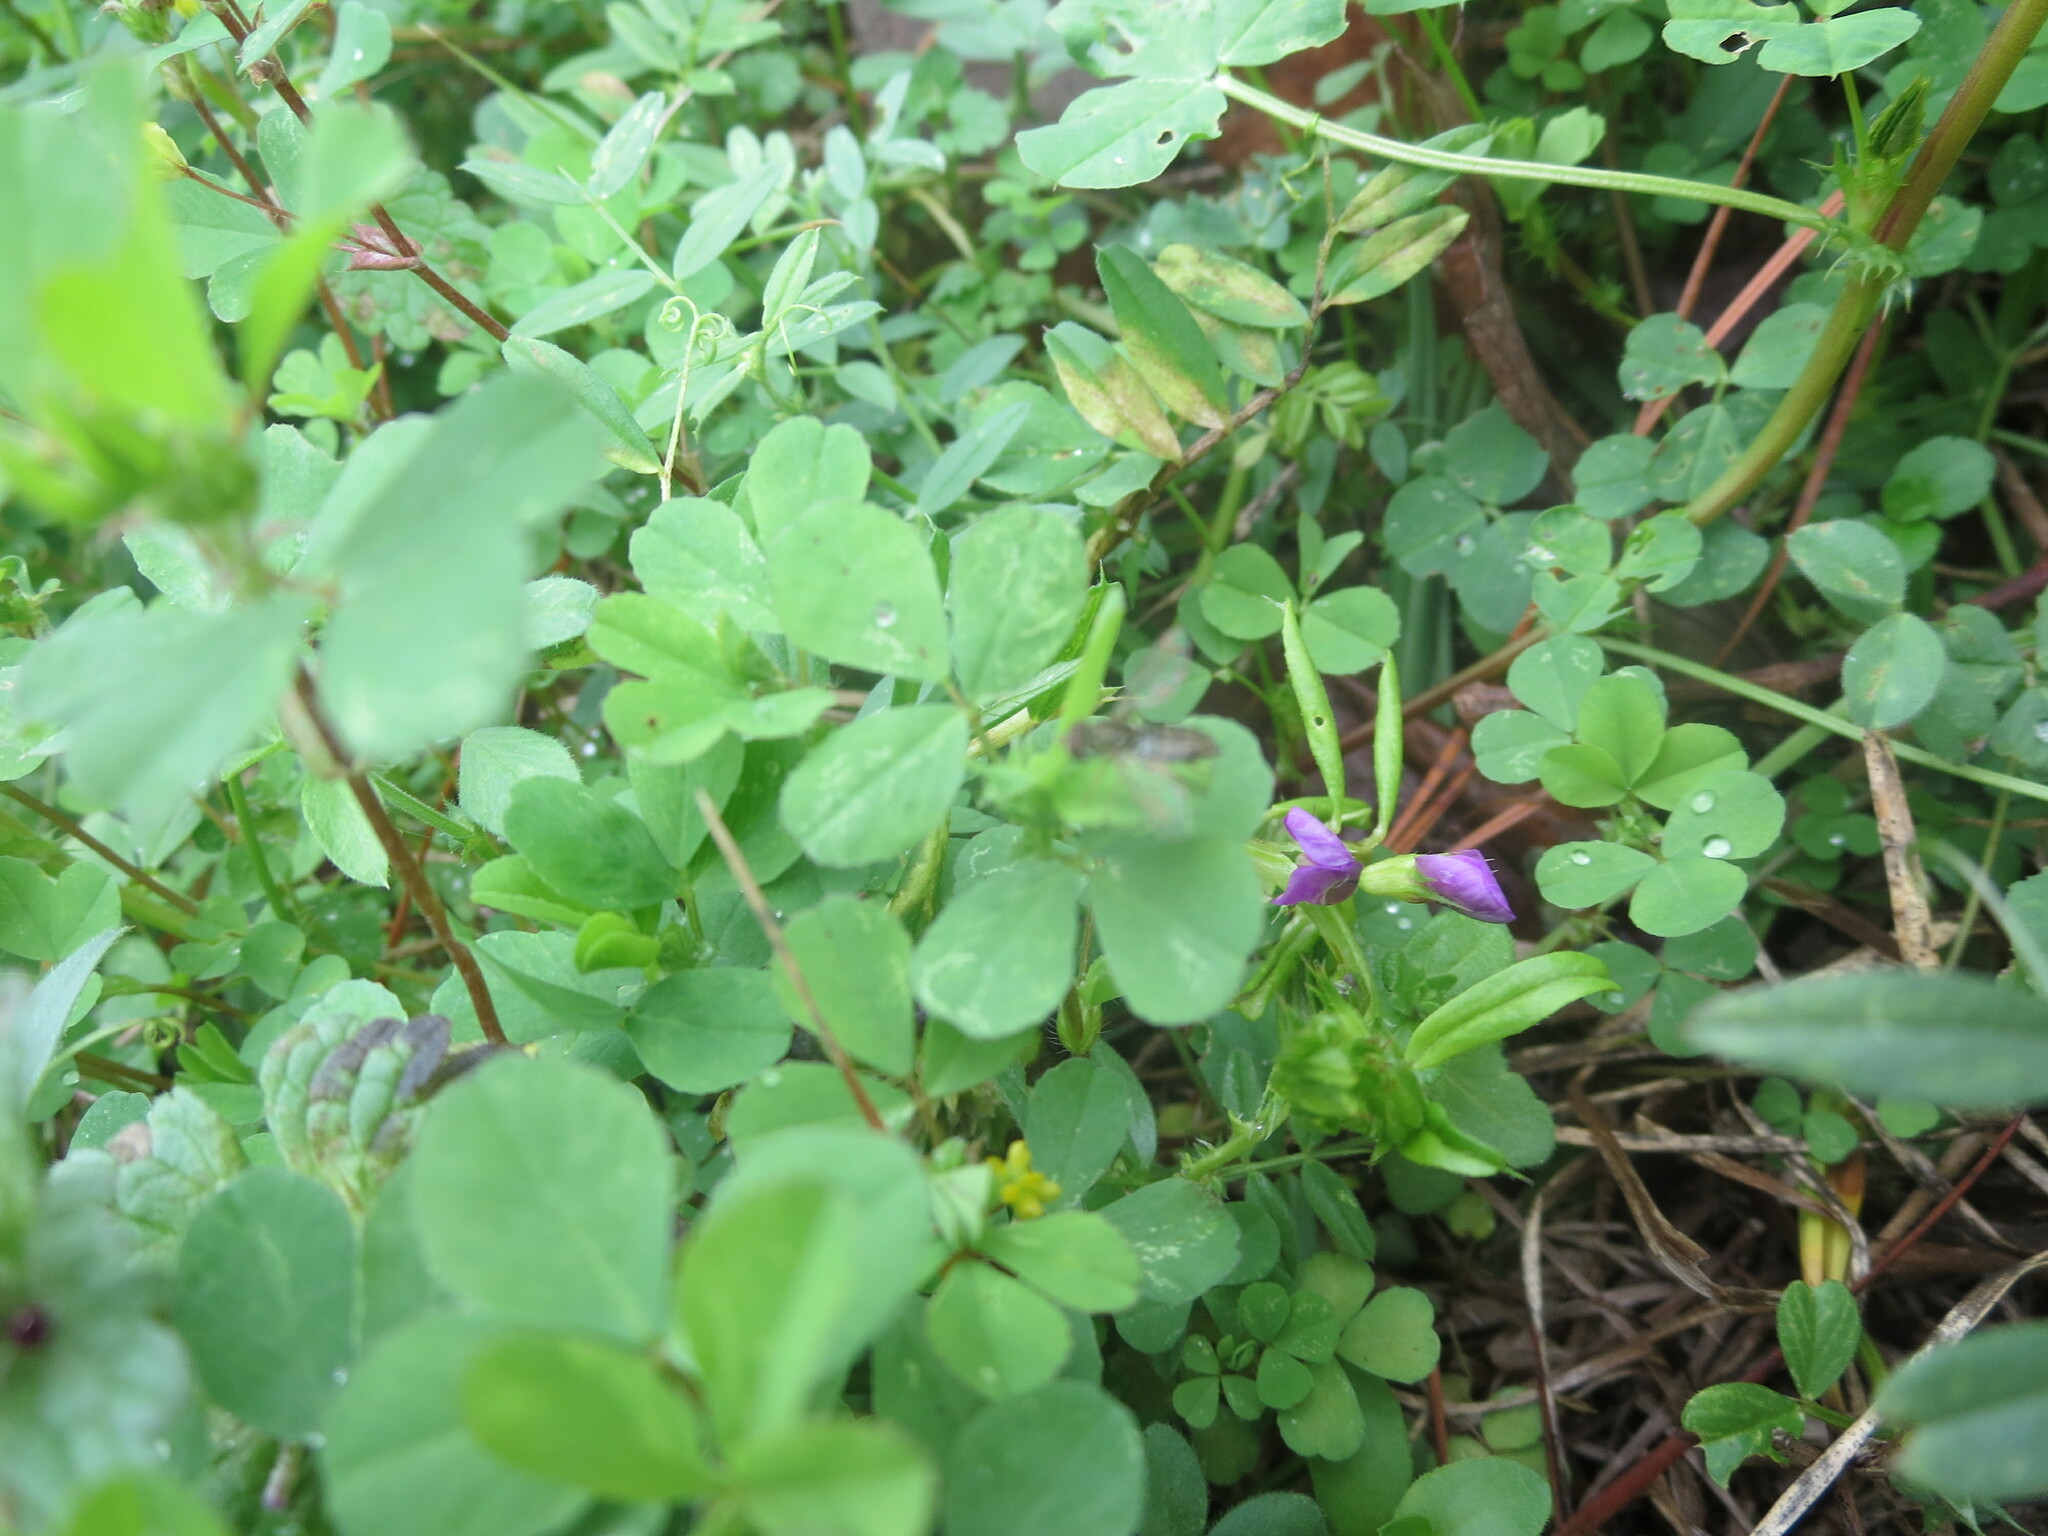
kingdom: Plantae
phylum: Tracheophyta
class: Magnoliopsida
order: Fabales
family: Fabaceae
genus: Trifolium
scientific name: Trifolium dubium
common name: Suckling clover
